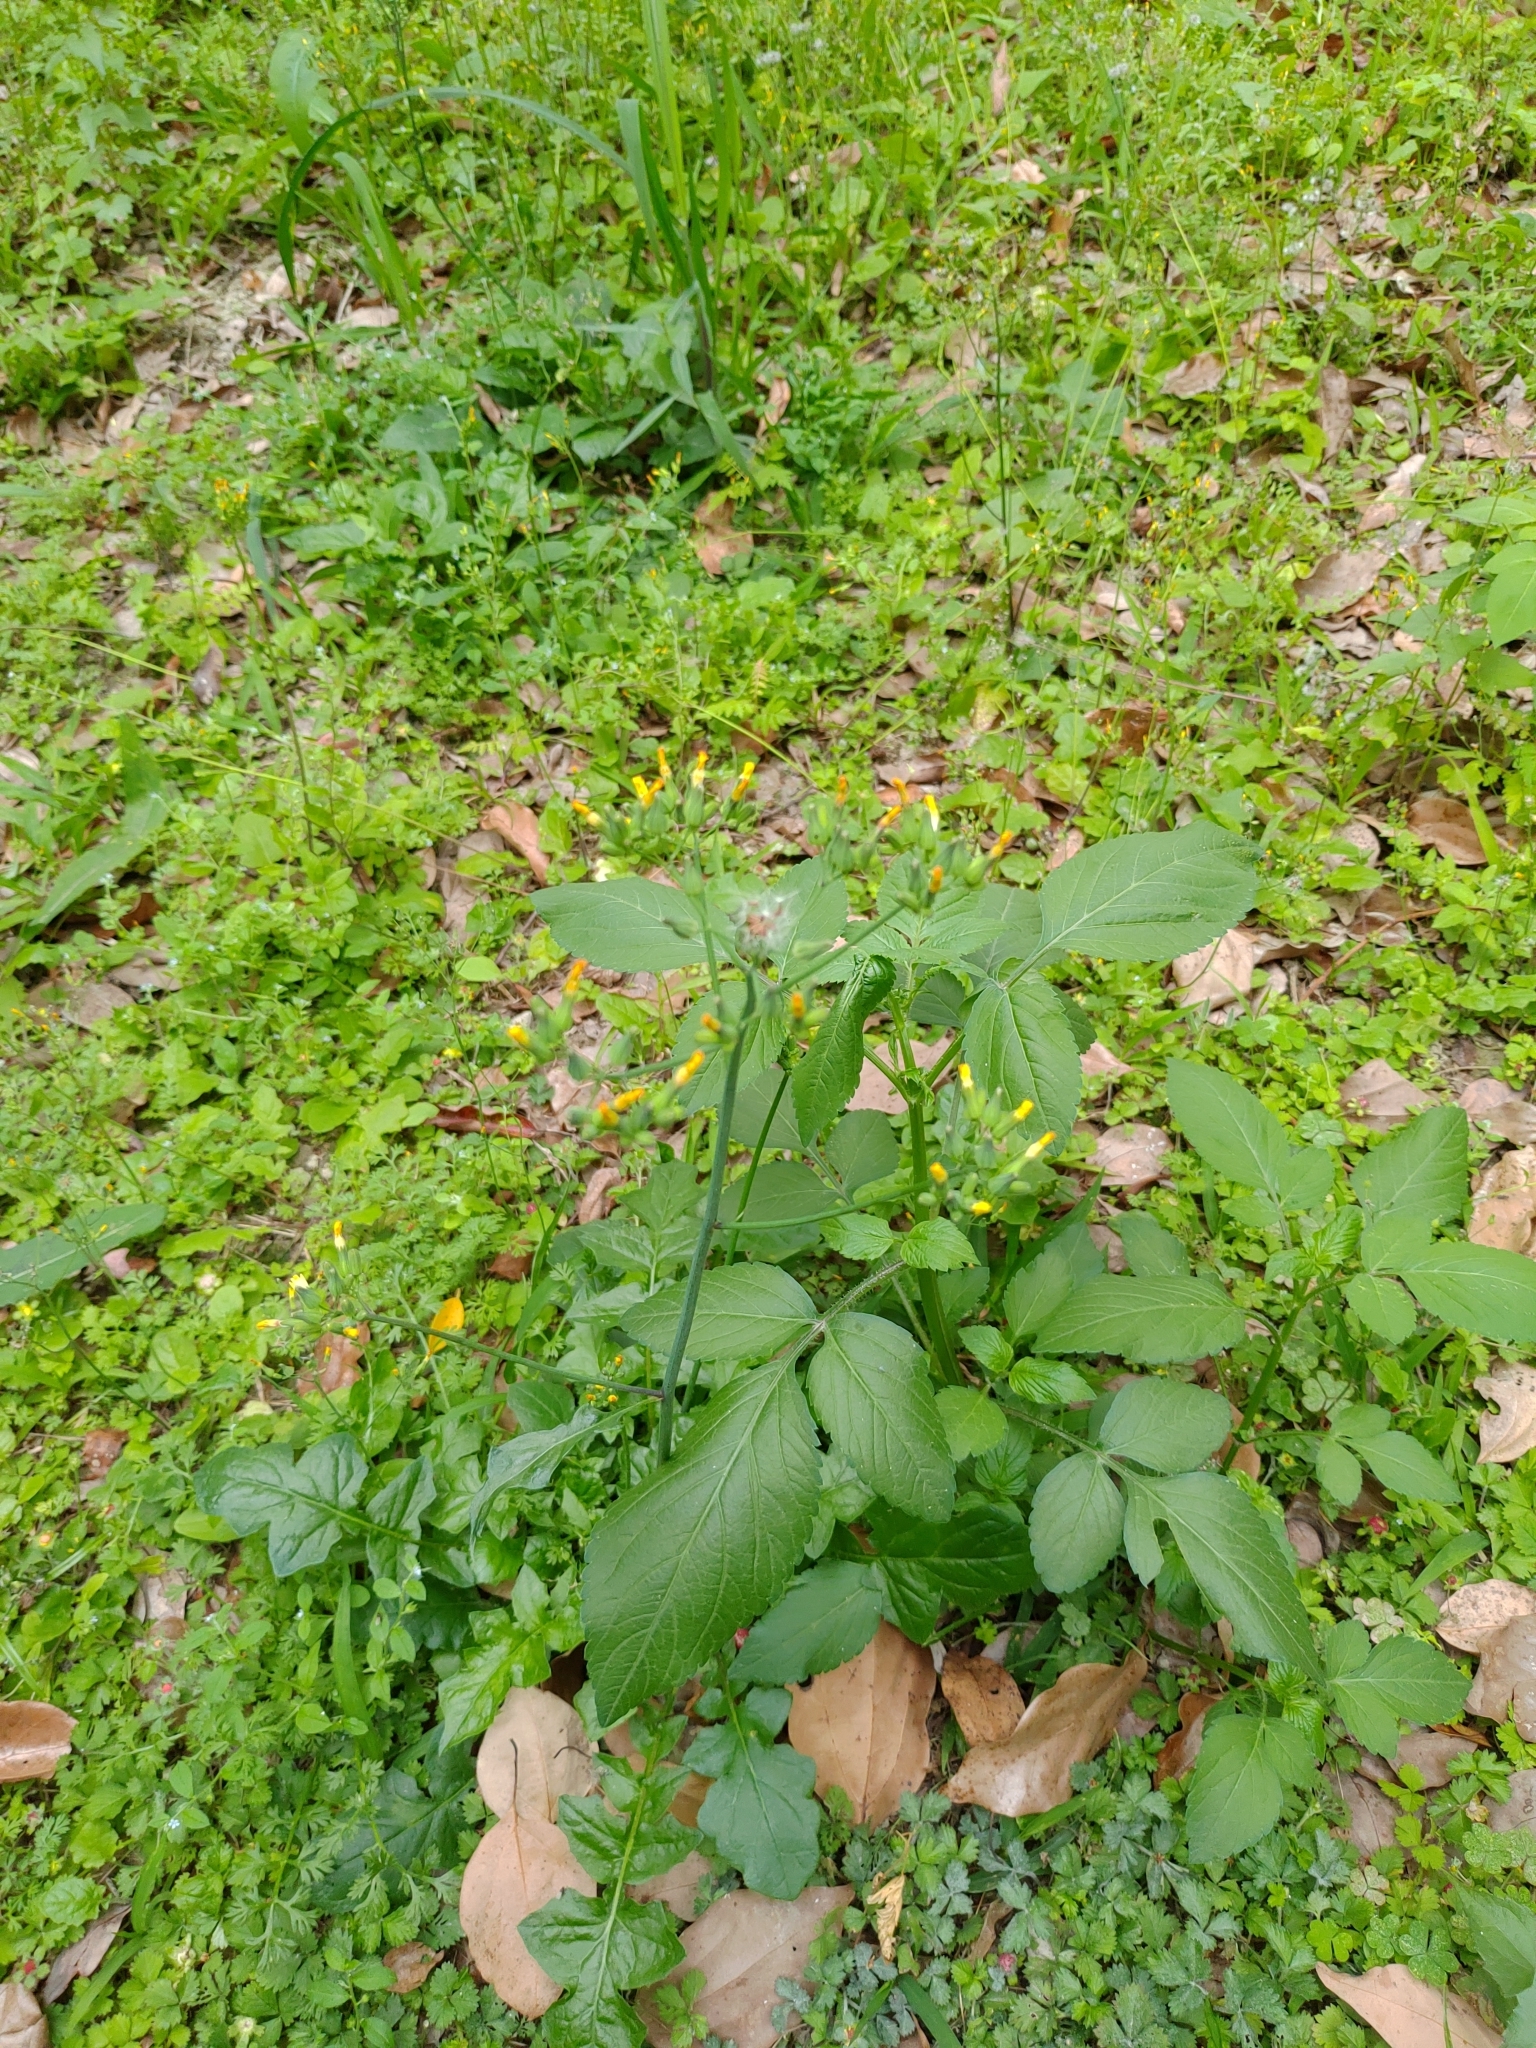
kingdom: Plantae
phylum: Tracheophyta
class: Magnoliopsida
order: Asterales
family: Asteraceae
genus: Youngia
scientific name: Youngia japonica
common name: Oriental false hawksbeard
